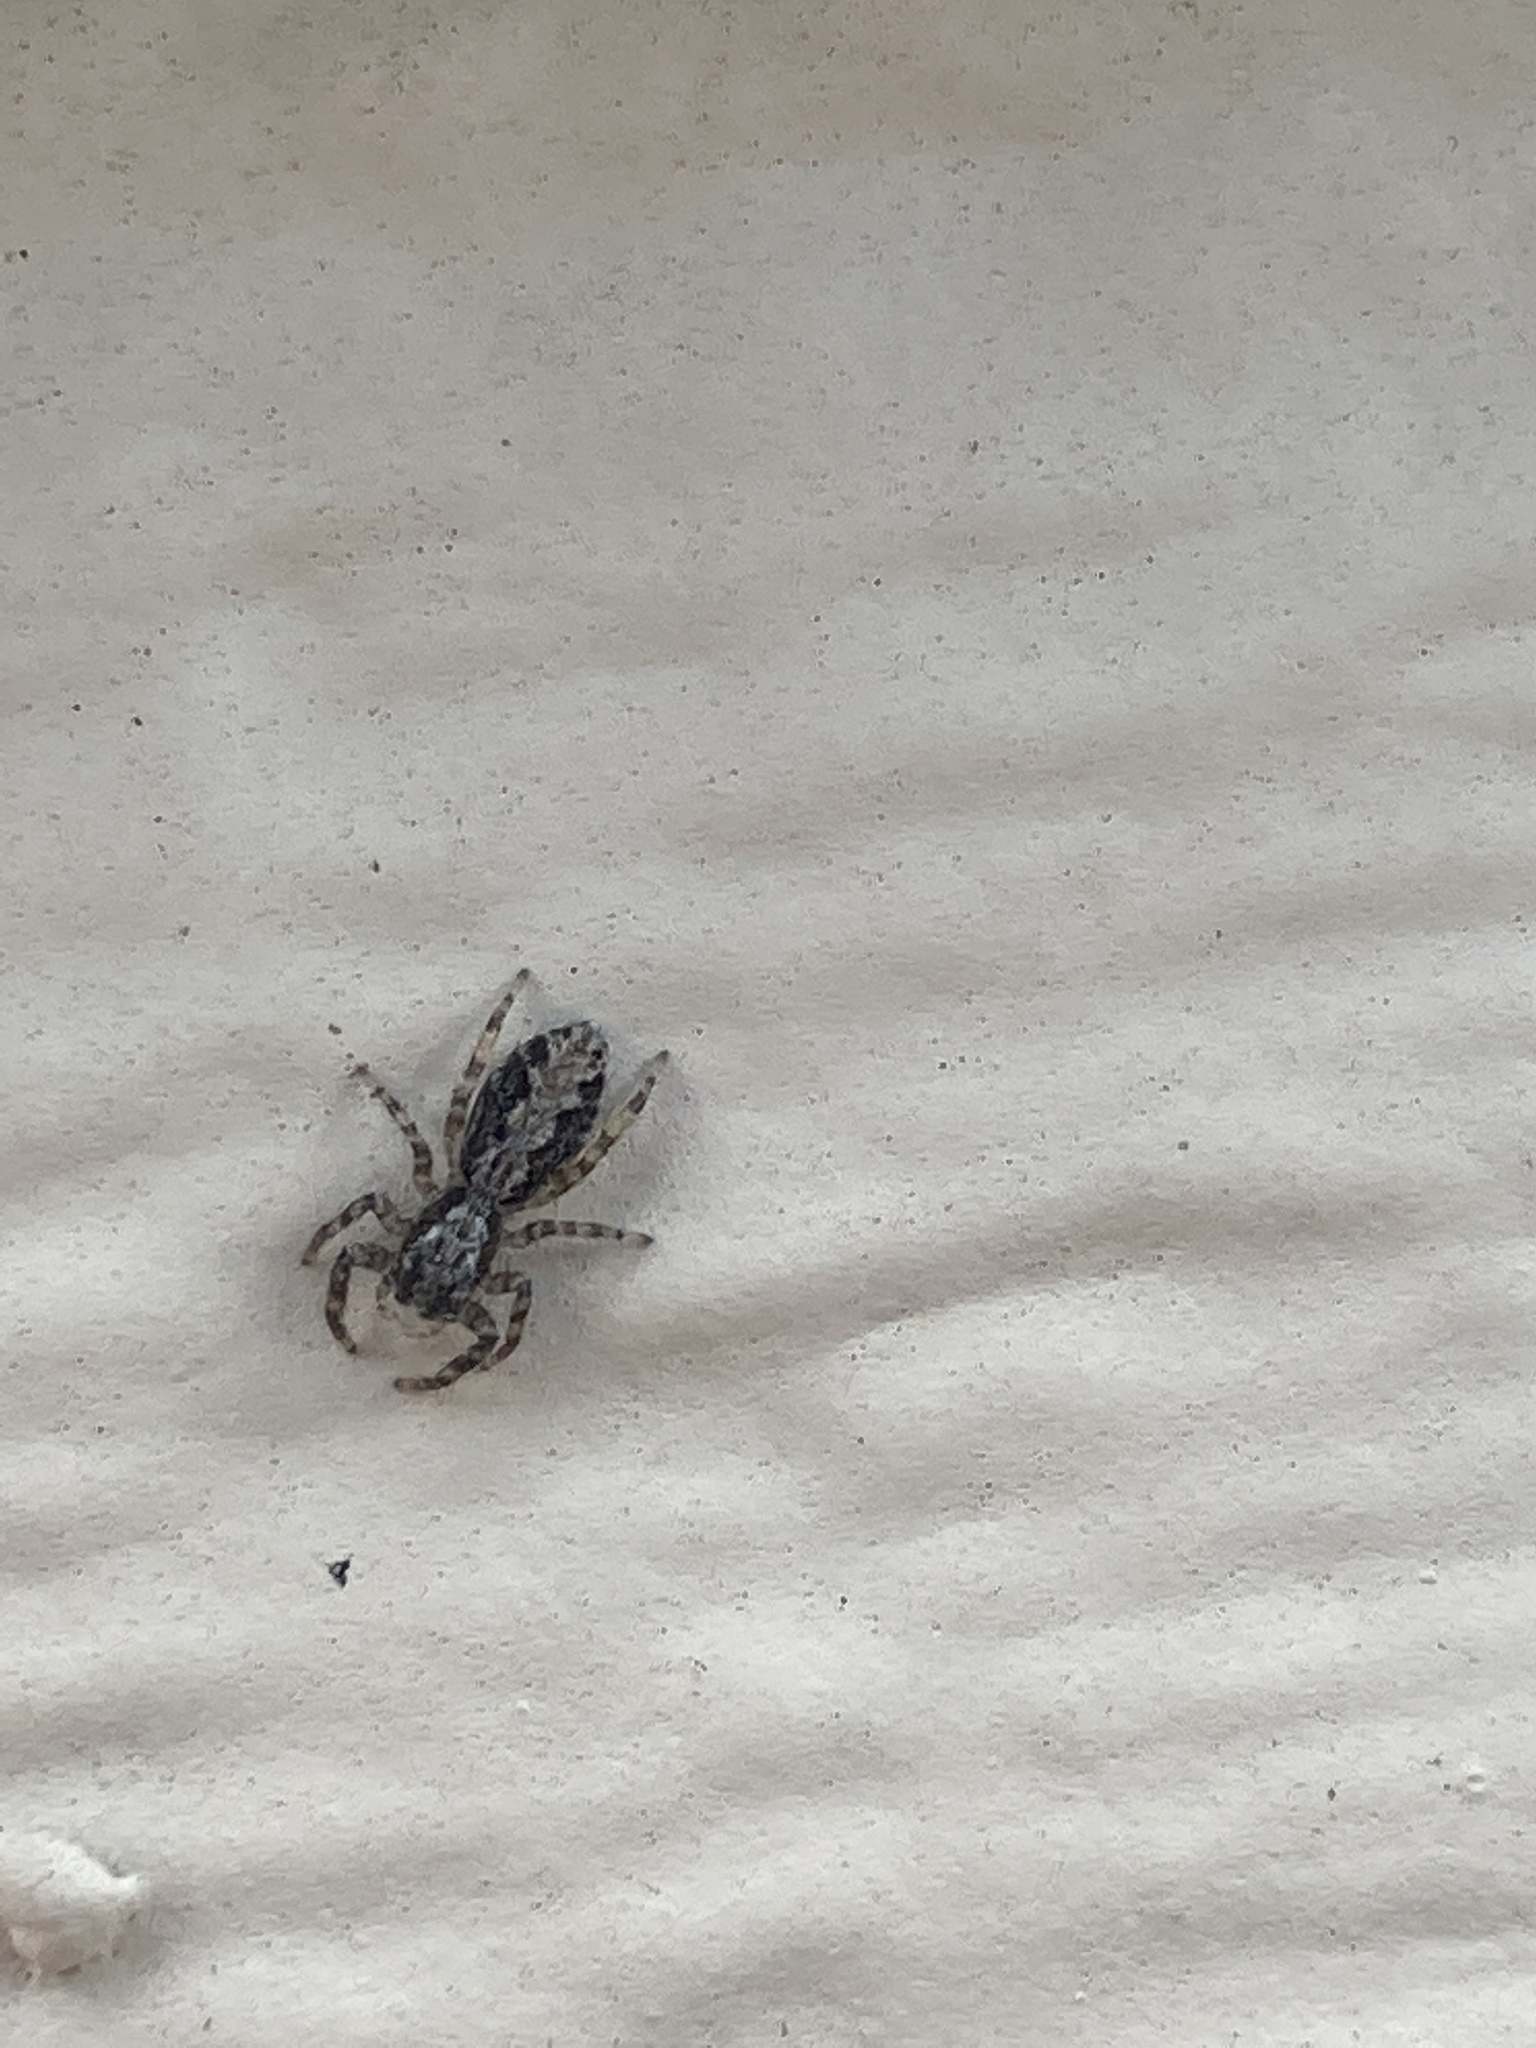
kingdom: Animalia
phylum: Arthropoda
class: Arachnida
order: Araneae
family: Salticidae
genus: Platycryptus
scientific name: Platycryptus californicus
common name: Jumping spiders
